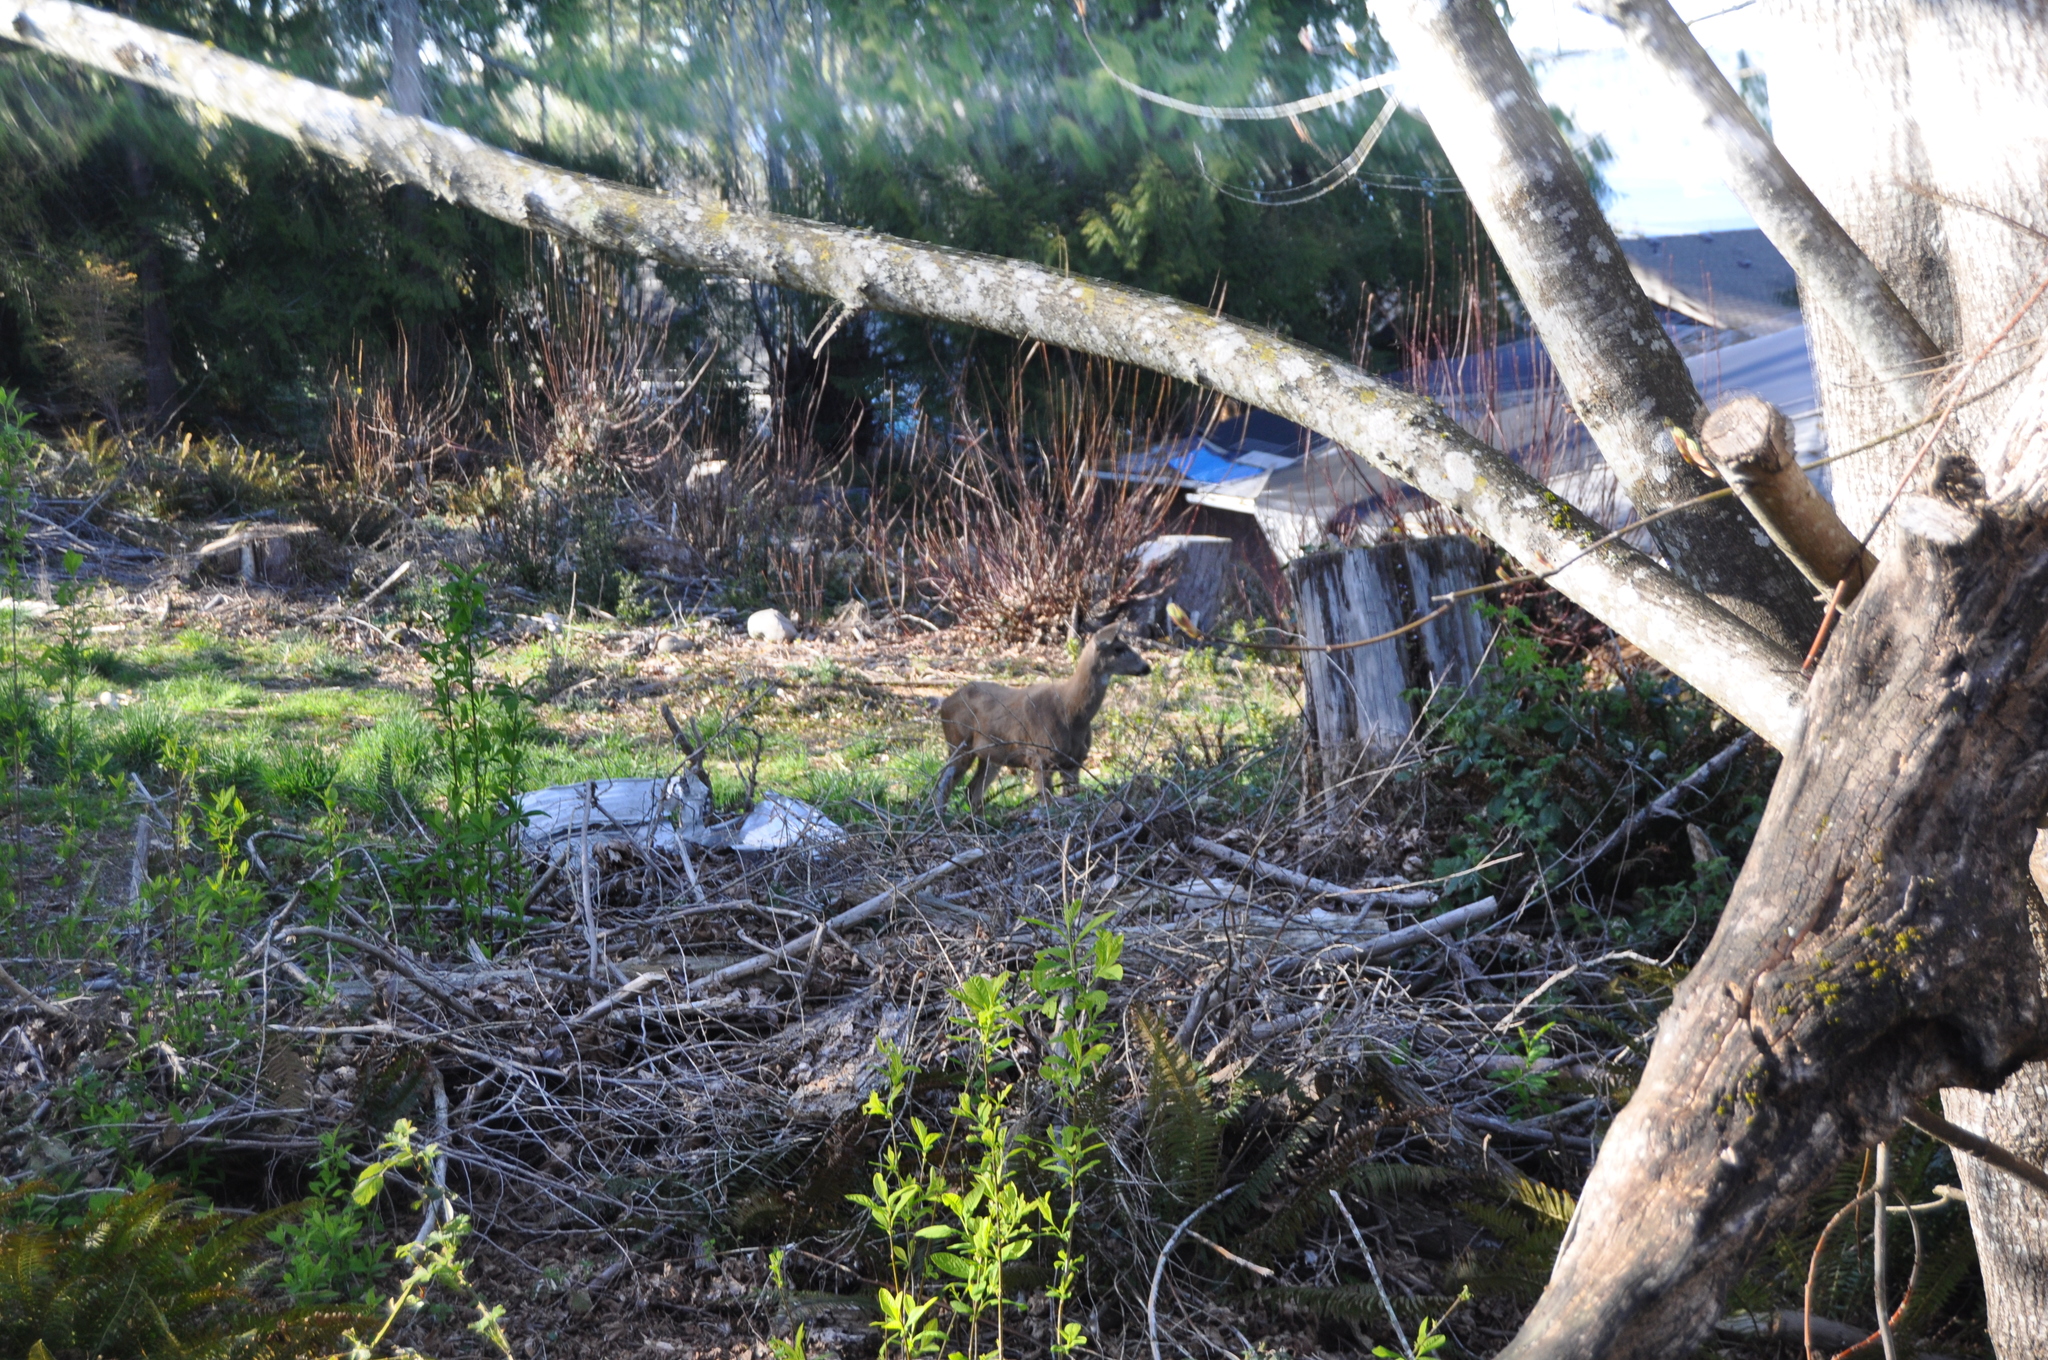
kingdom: Animalia
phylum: Chordata
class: Mammalia
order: Artiodactyla
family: Cervidae
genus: Odocoileus
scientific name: Odocoileus hemionus
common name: Mule deer
